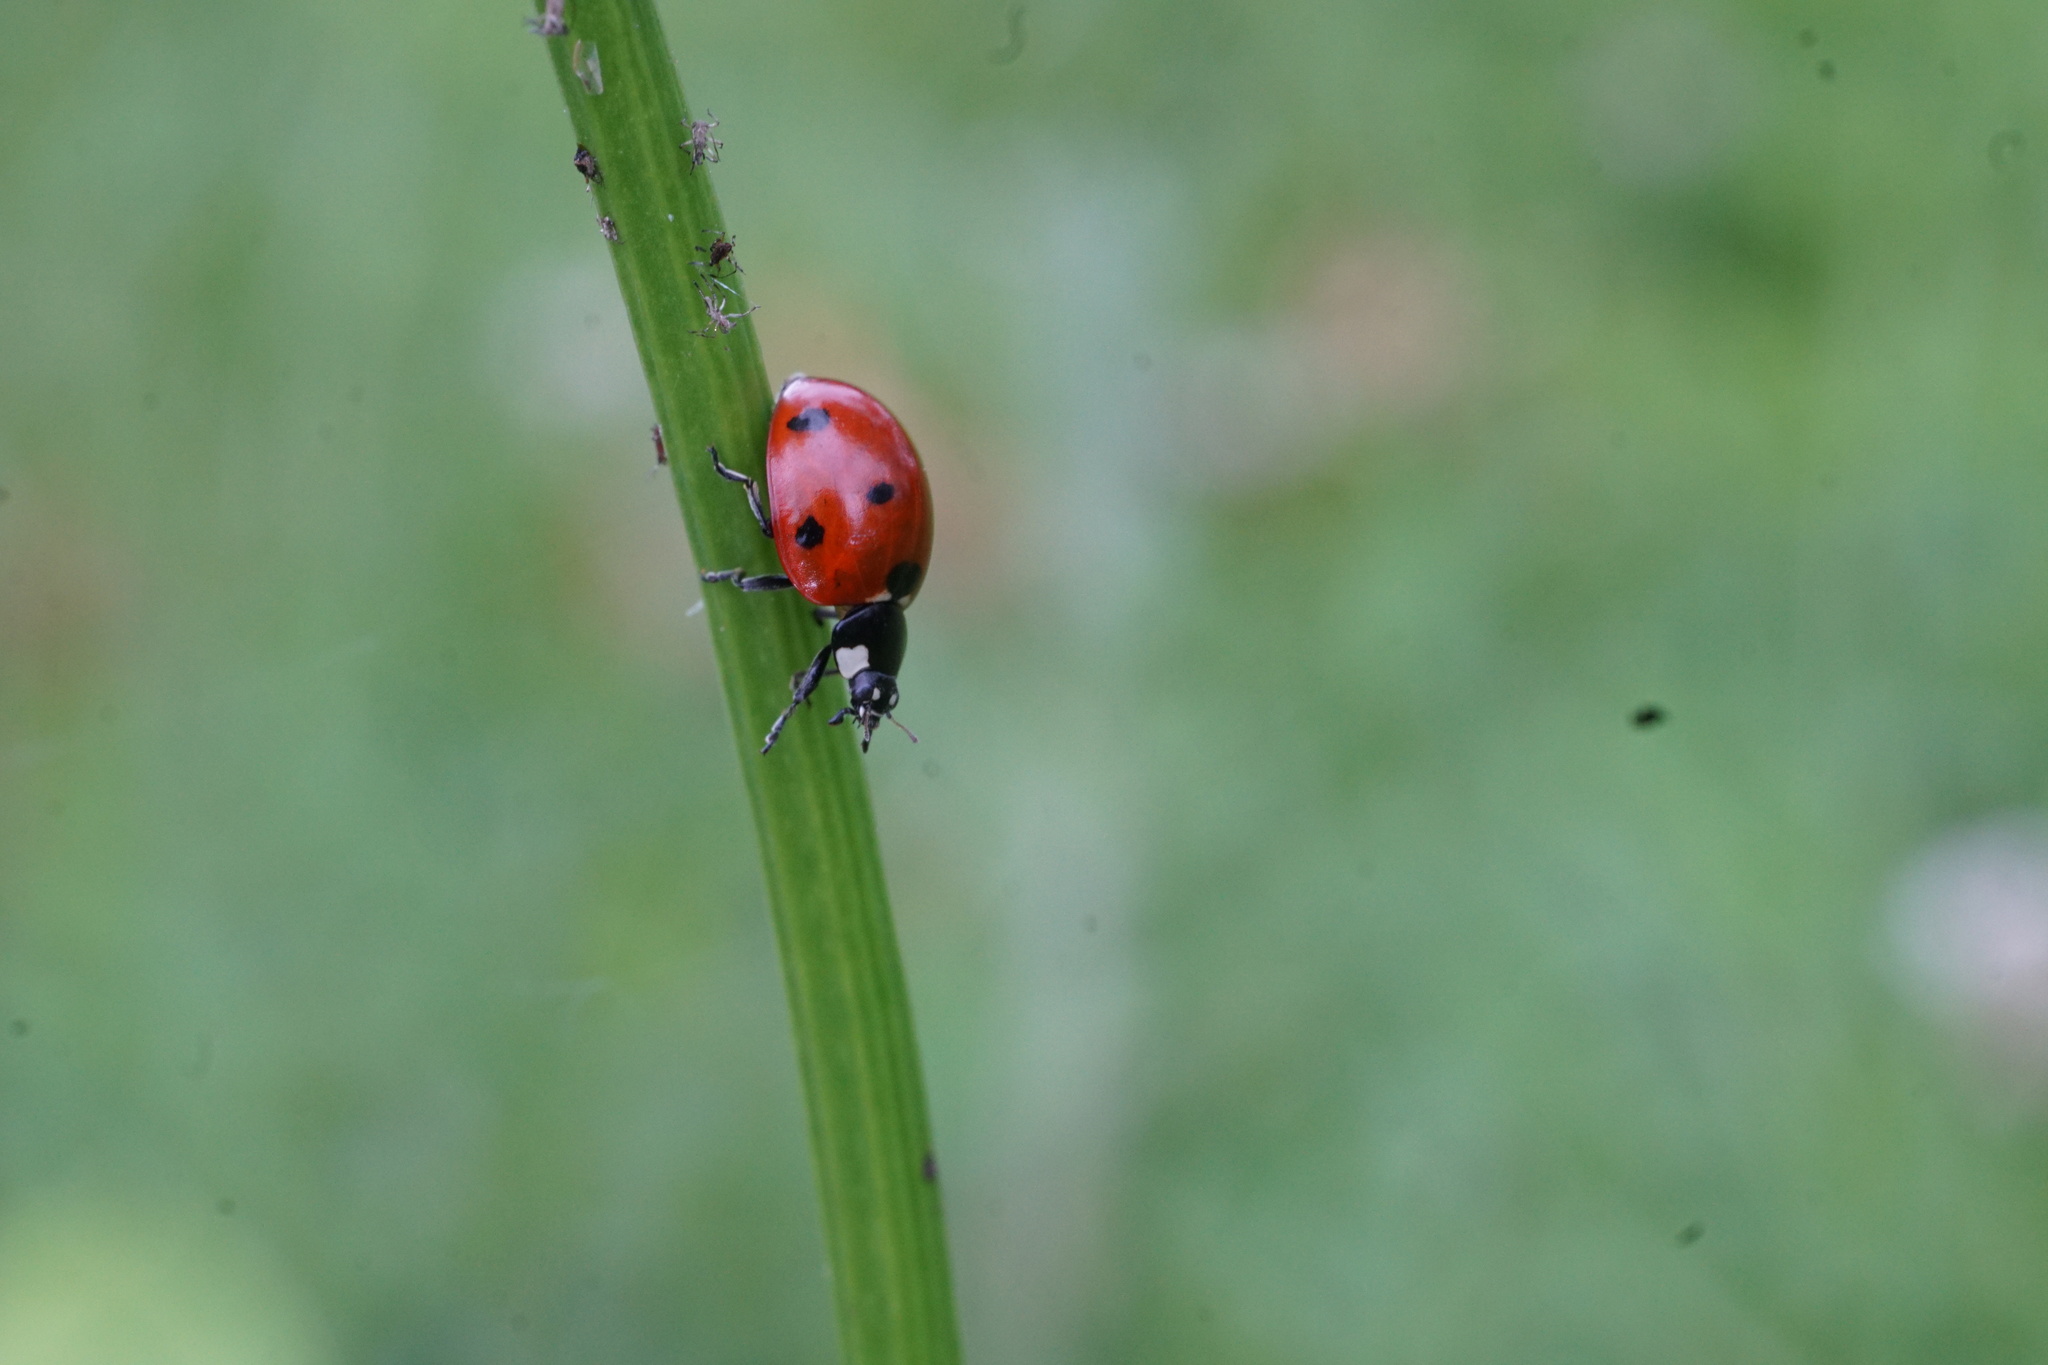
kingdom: Animalia
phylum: Arthropoda
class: Insecta
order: Coleoptera
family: Coccinellidae
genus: Coccinella
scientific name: Coccinella septempunctata
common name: Sevenspotted lady beetle
